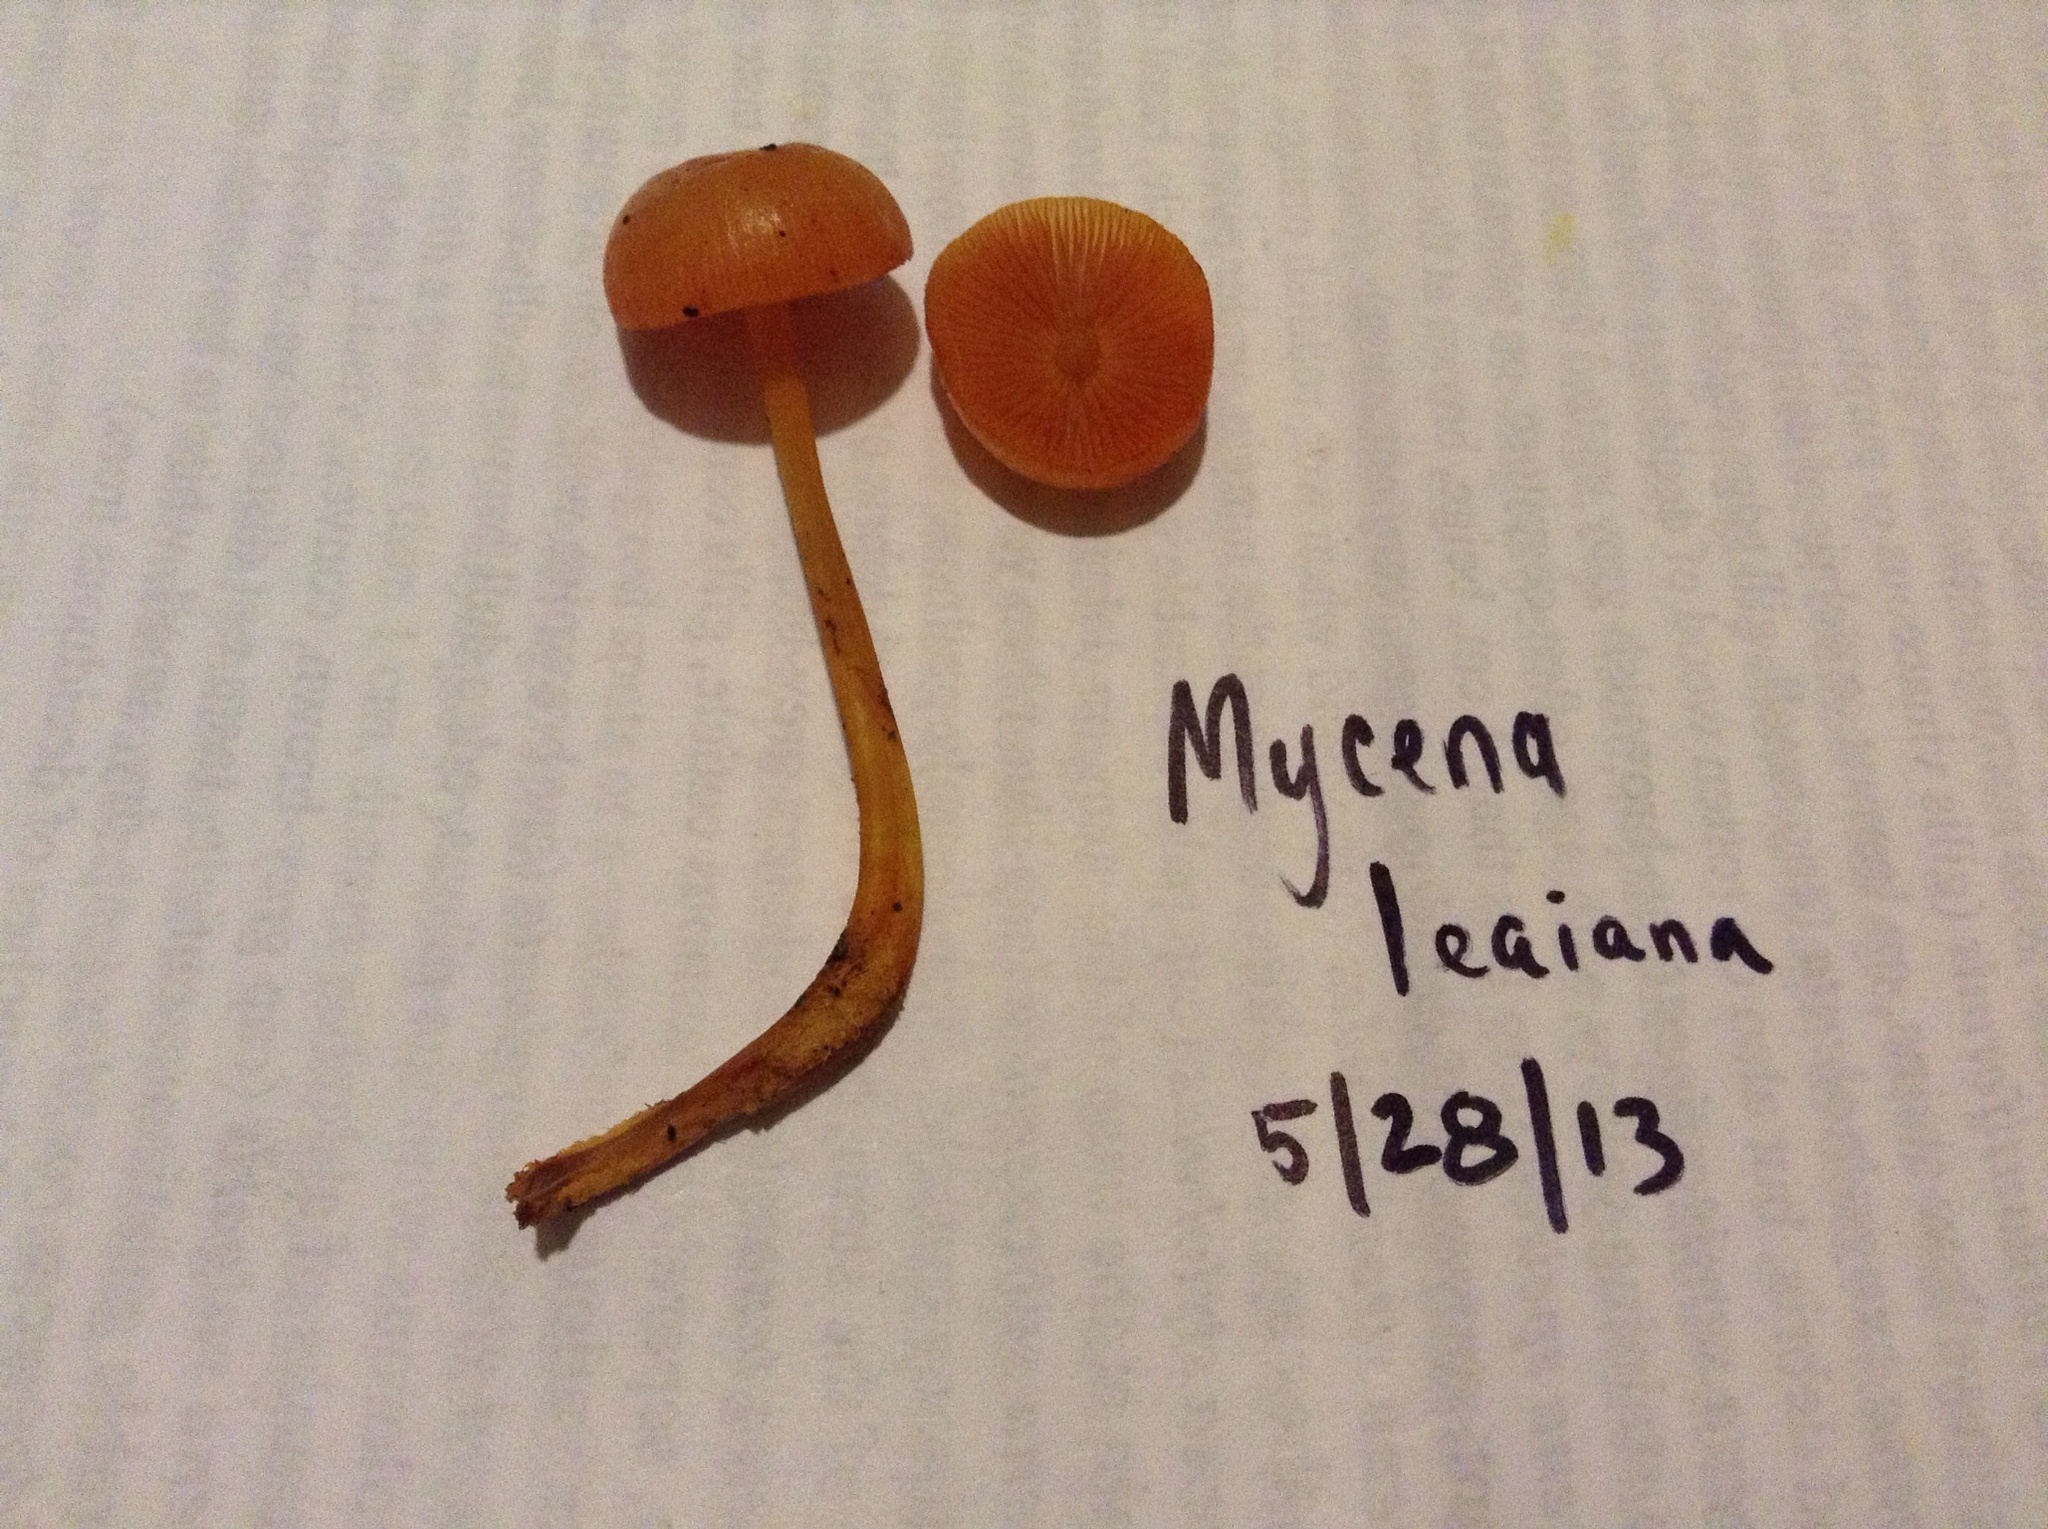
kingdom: Fungi
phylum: Basidiomycota
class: Agaricomycetes
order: Agaricales
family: Mycenaceae
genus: Mycena
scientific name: Mycena leaiana
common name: Orange mycena
